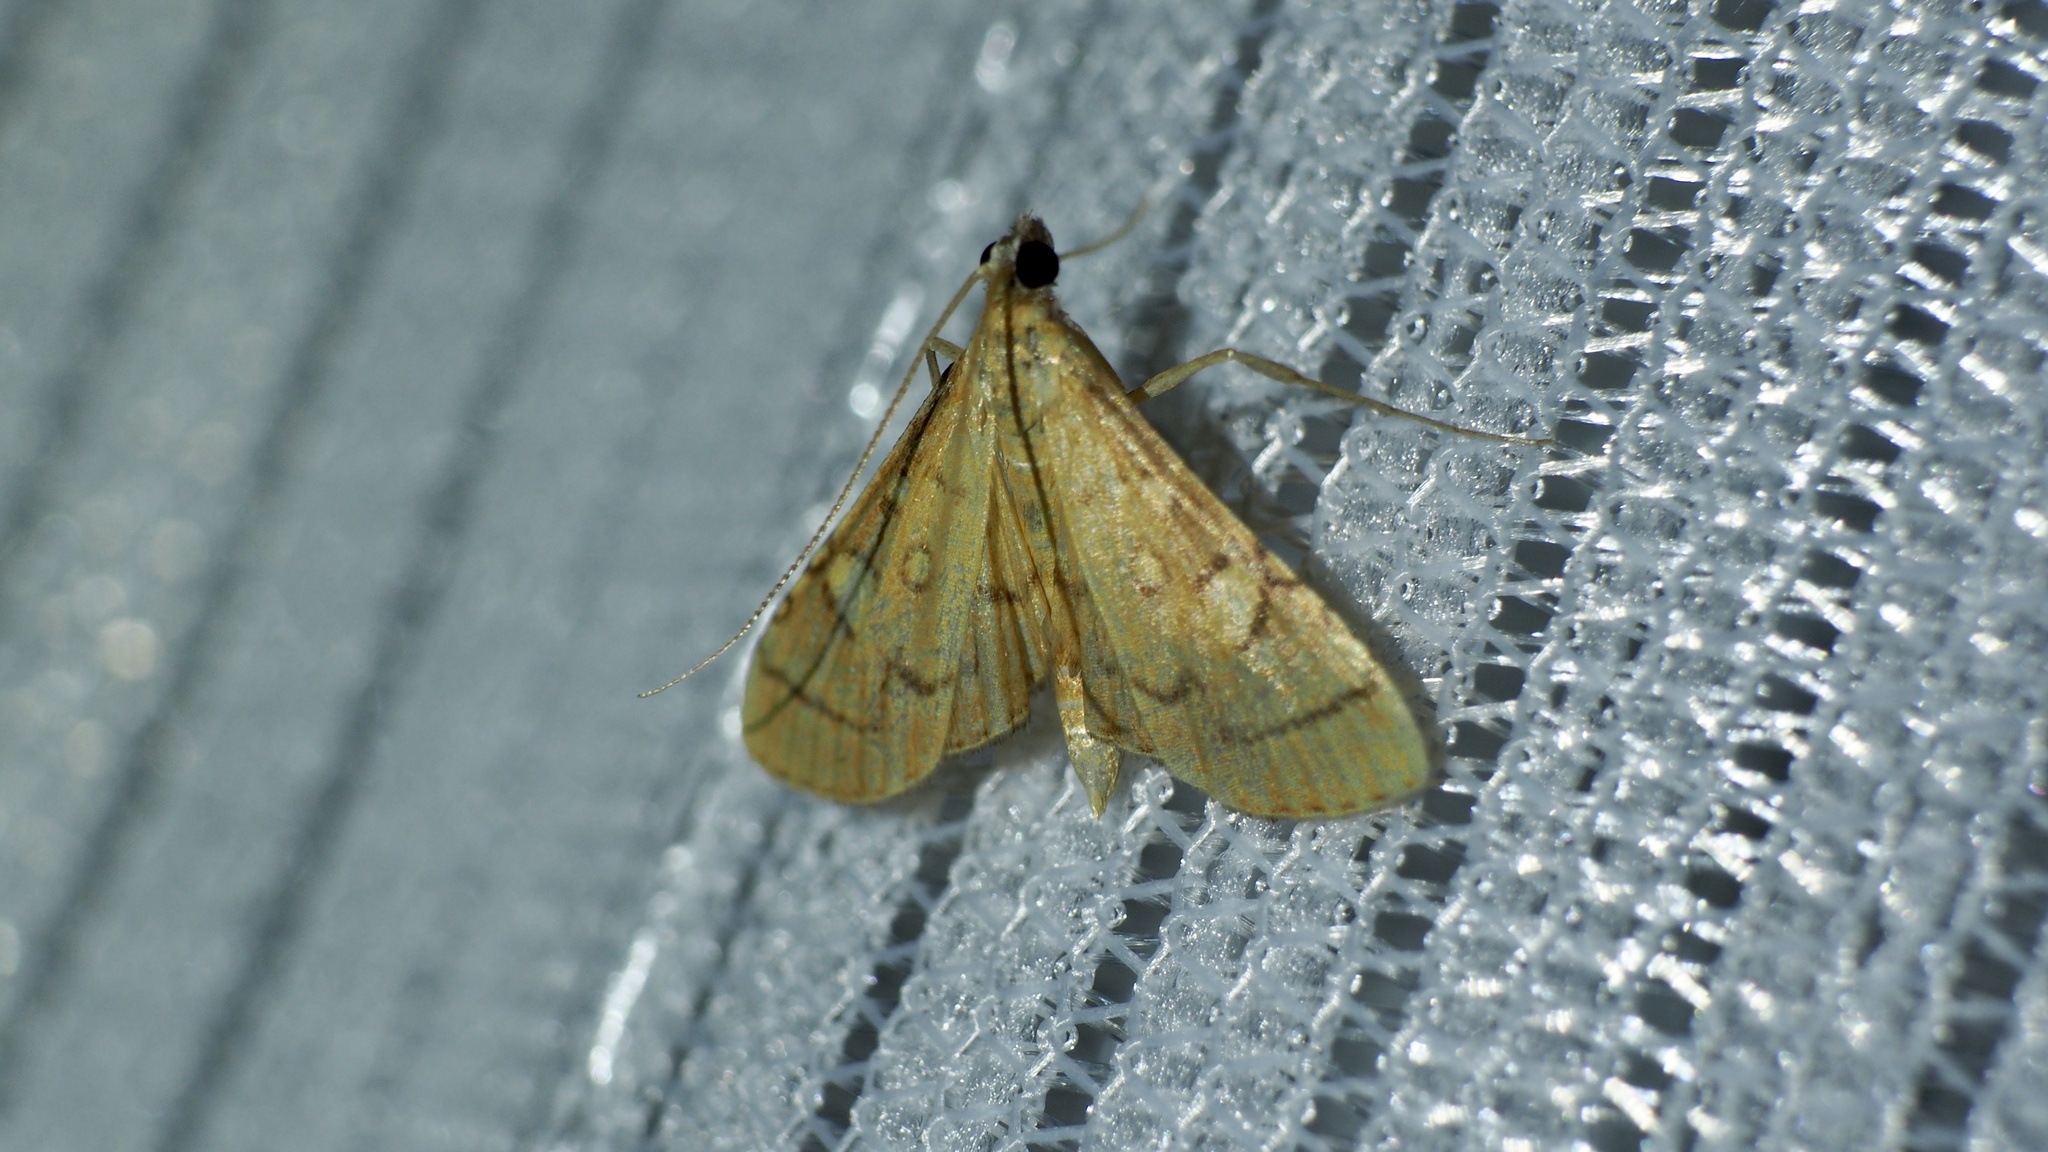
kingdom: Animalia
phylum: Arthropoda
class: Insecta
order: Lepidoptera
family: Crambidae
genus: Mabra
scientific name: Mabra charonialis
